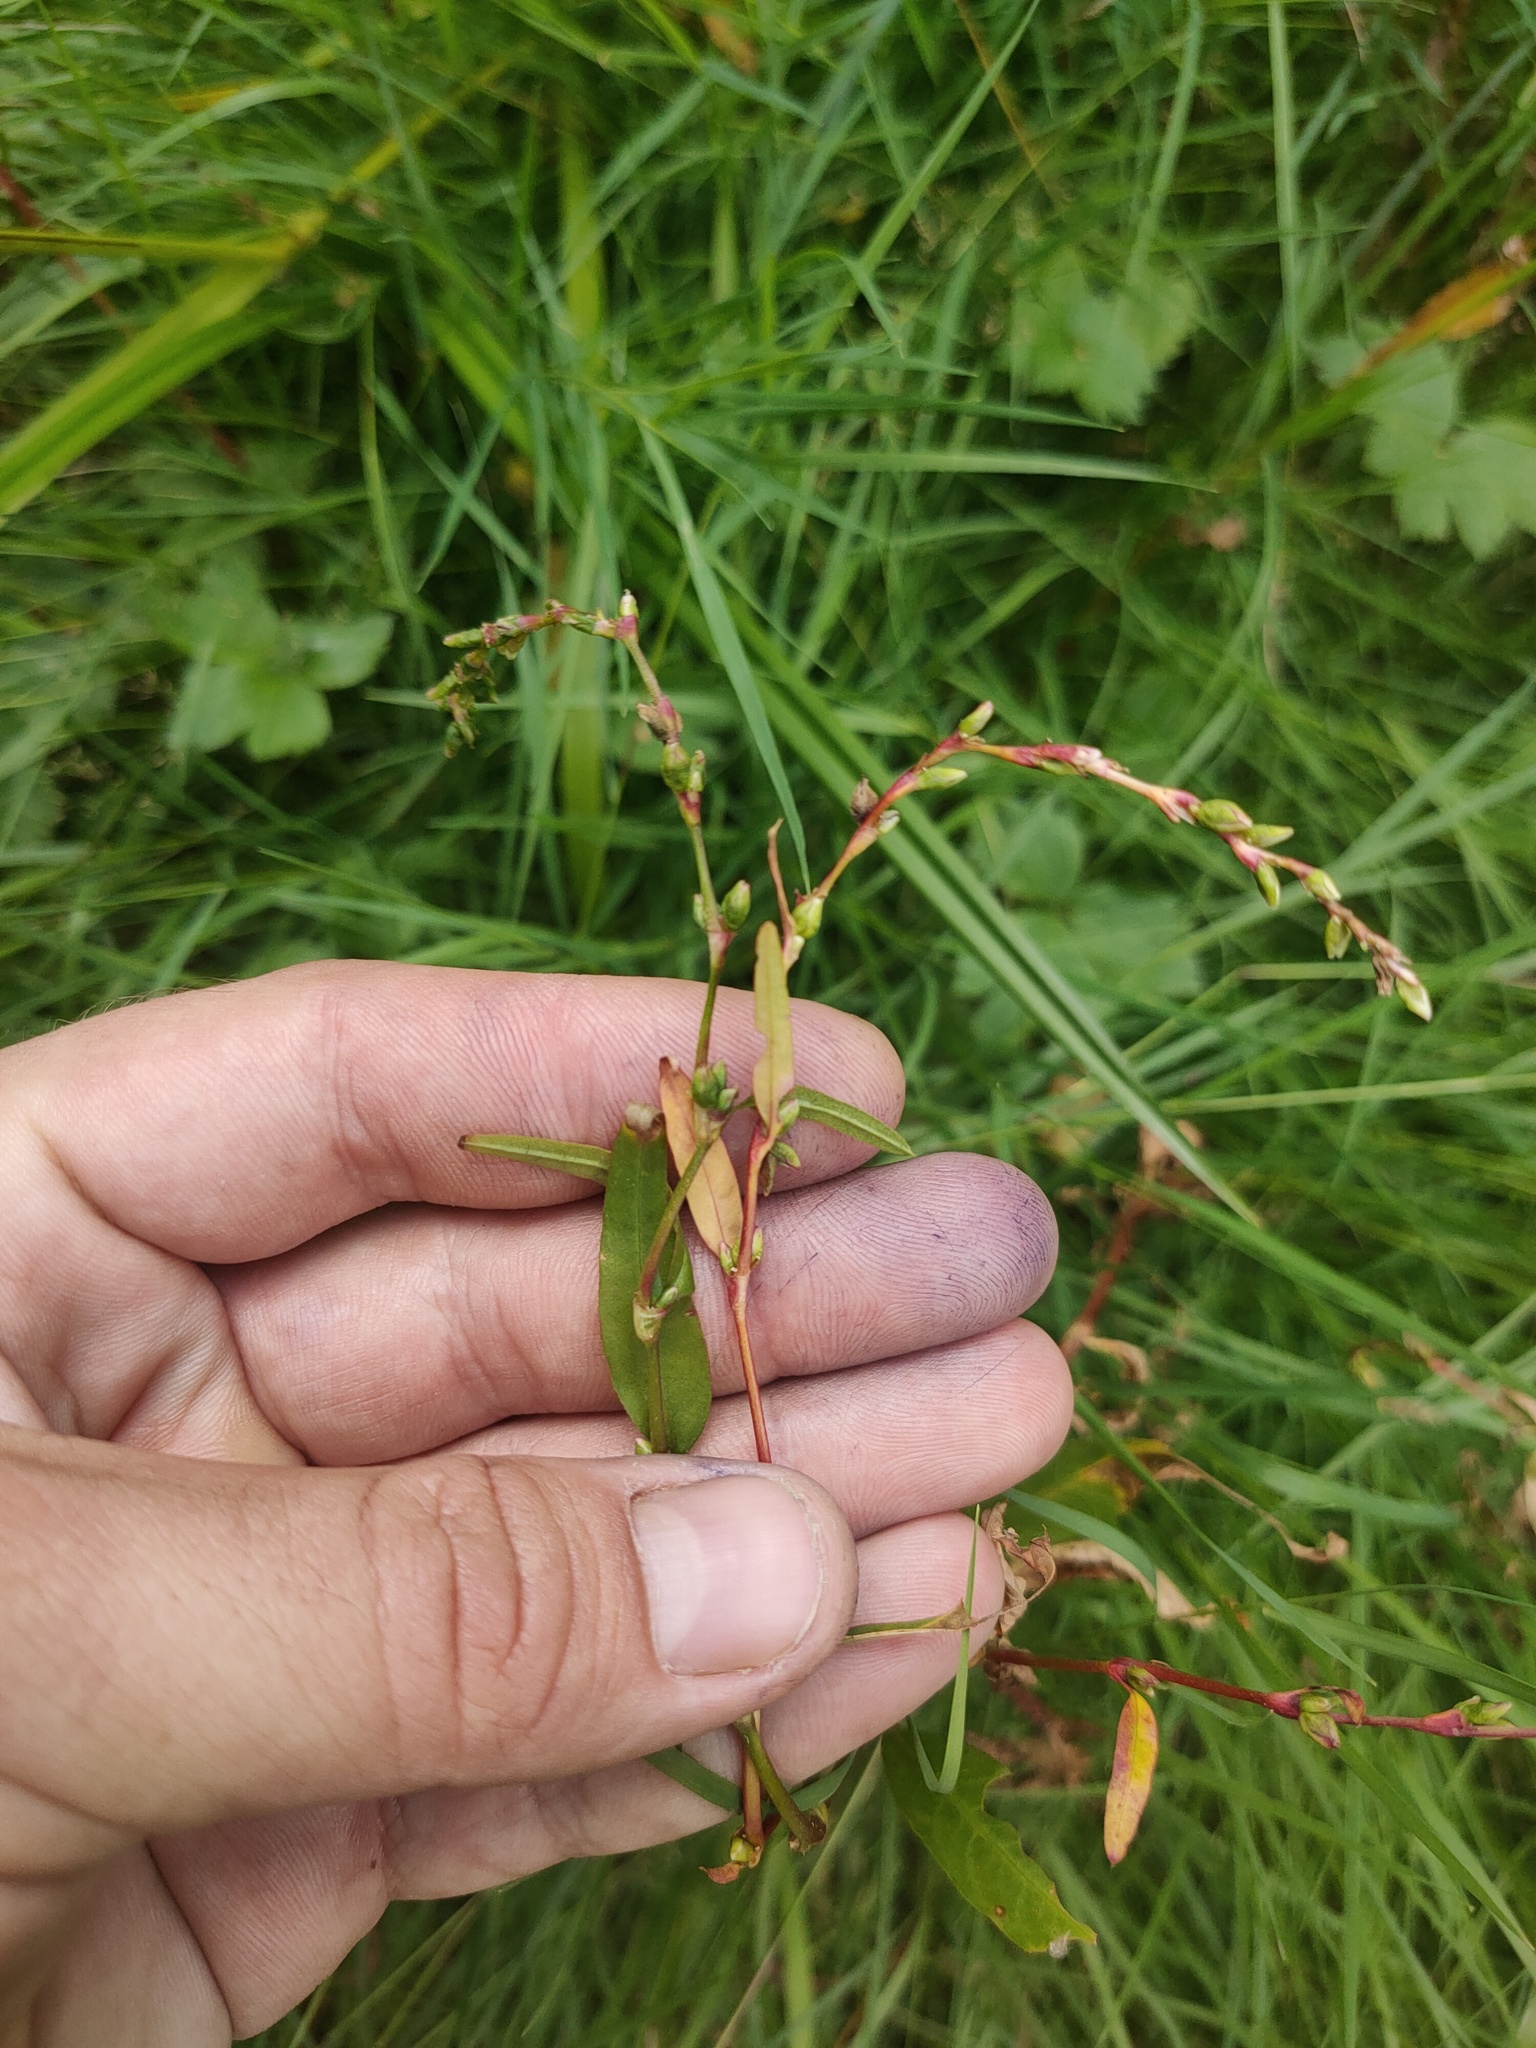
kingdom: Plantae
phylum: Tracheophyta
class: Magnoliopsida
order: Caryophyllales
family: Polygonaceae
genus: Persicaria
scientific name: Persicaria hydropiper
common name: Water-pepper
